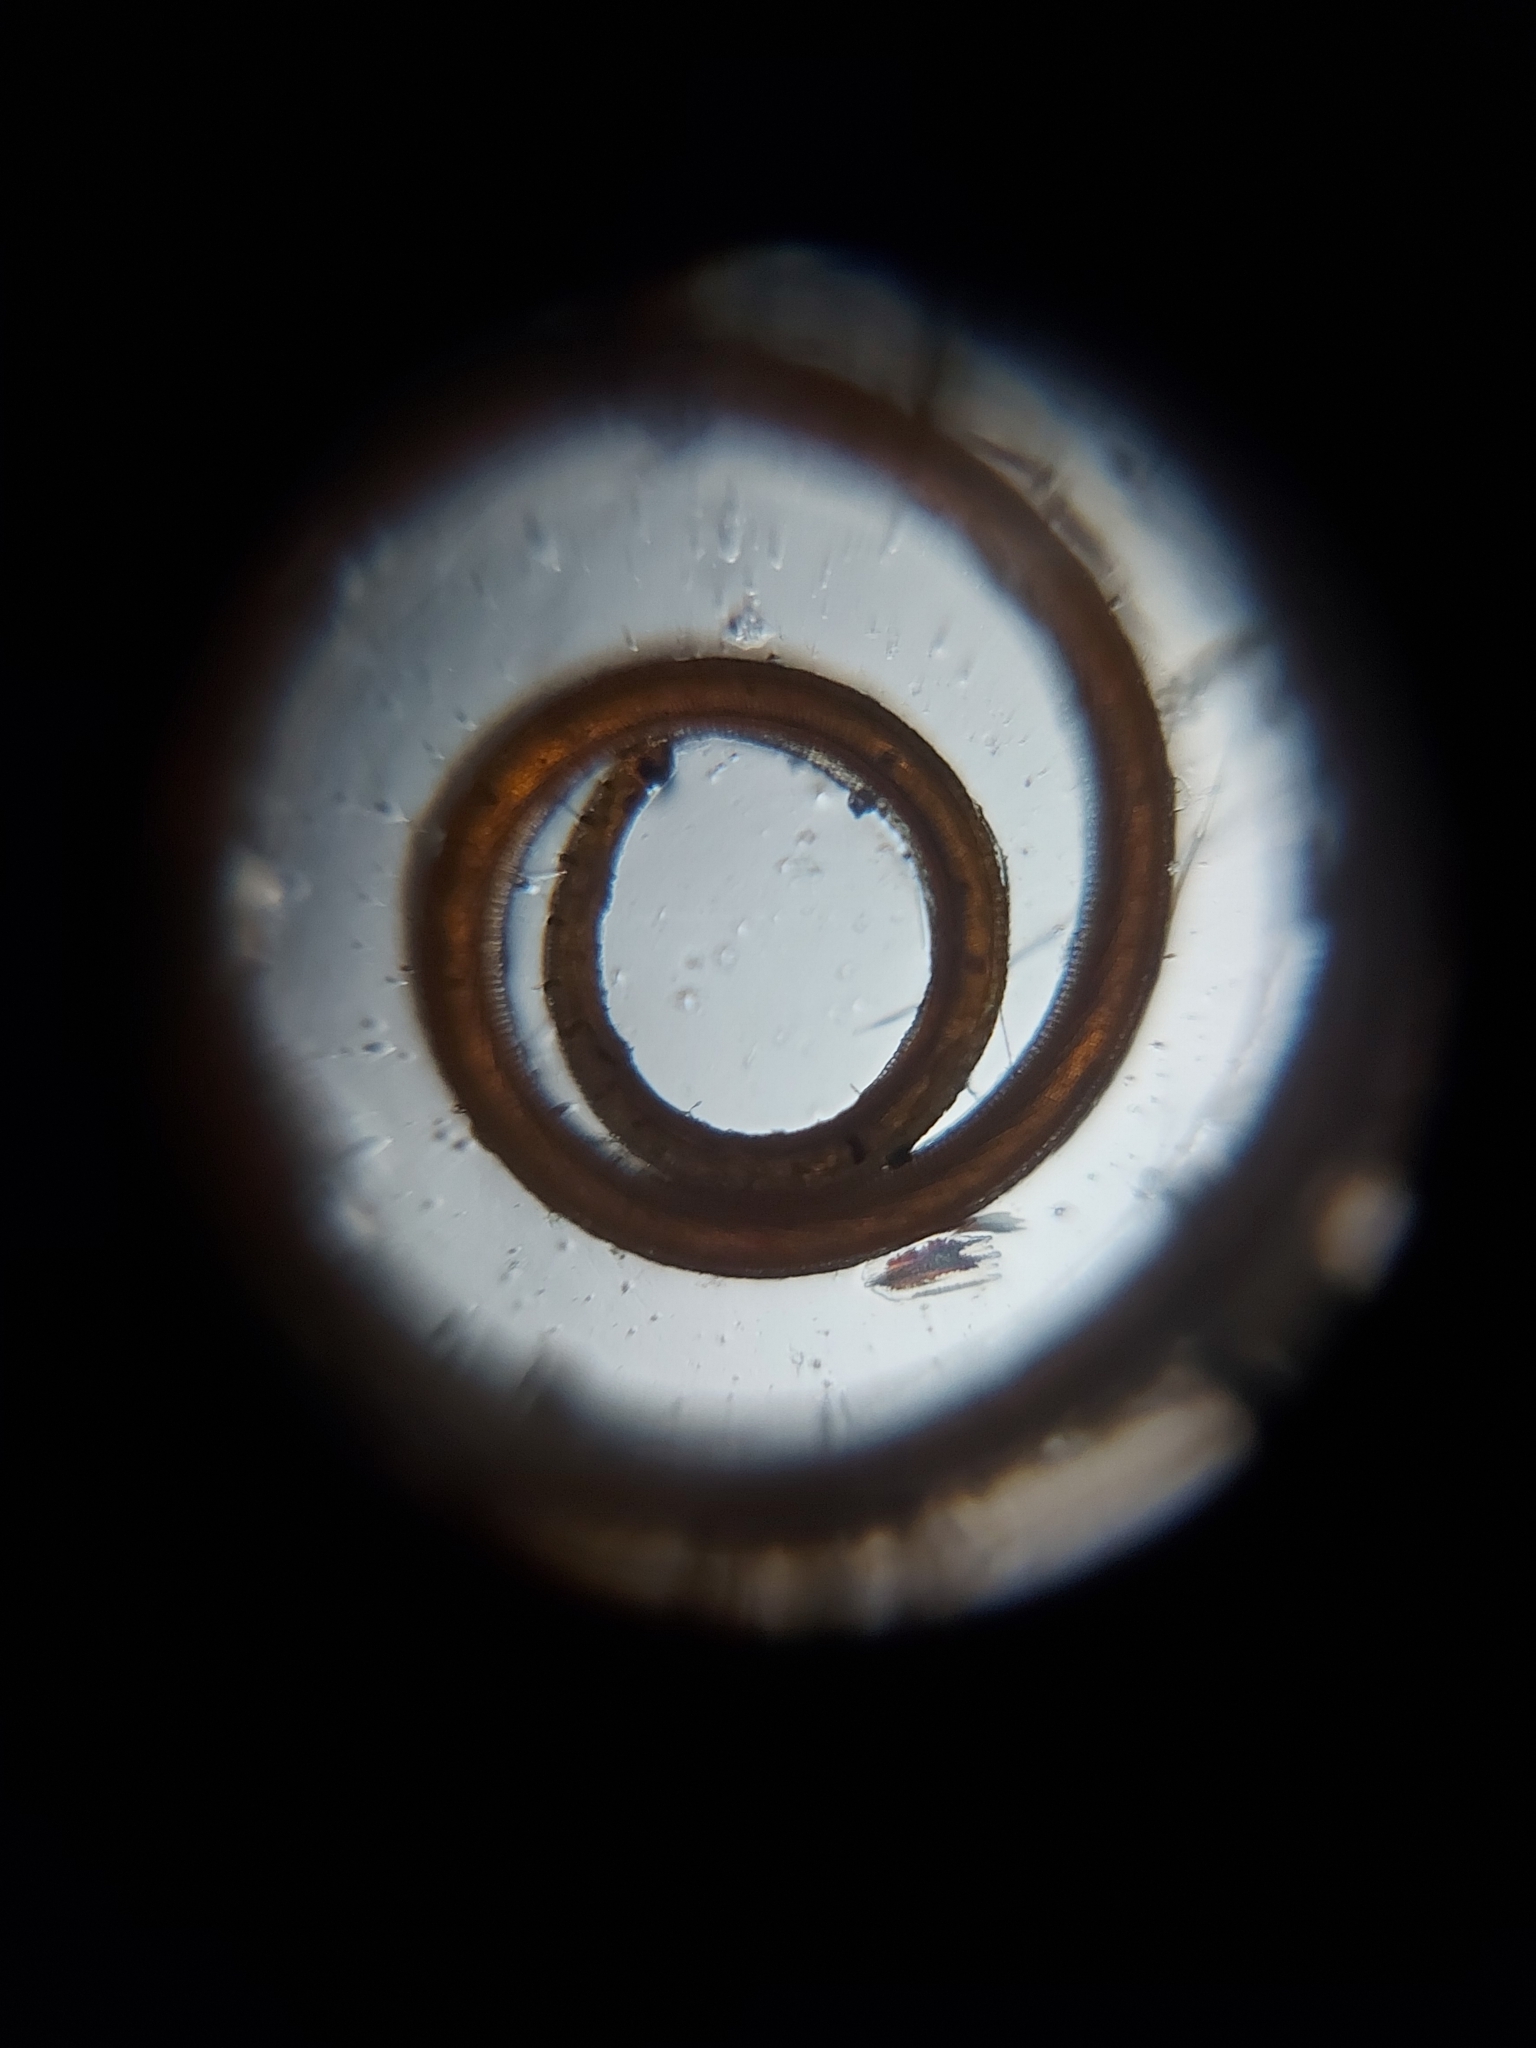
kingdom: Animalia
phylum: Arthropoda
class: Insecta
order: Lepidoptera
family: Riodinidae
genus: Thisbe
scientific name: Thisbe lycorias
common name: Banner metalmark
